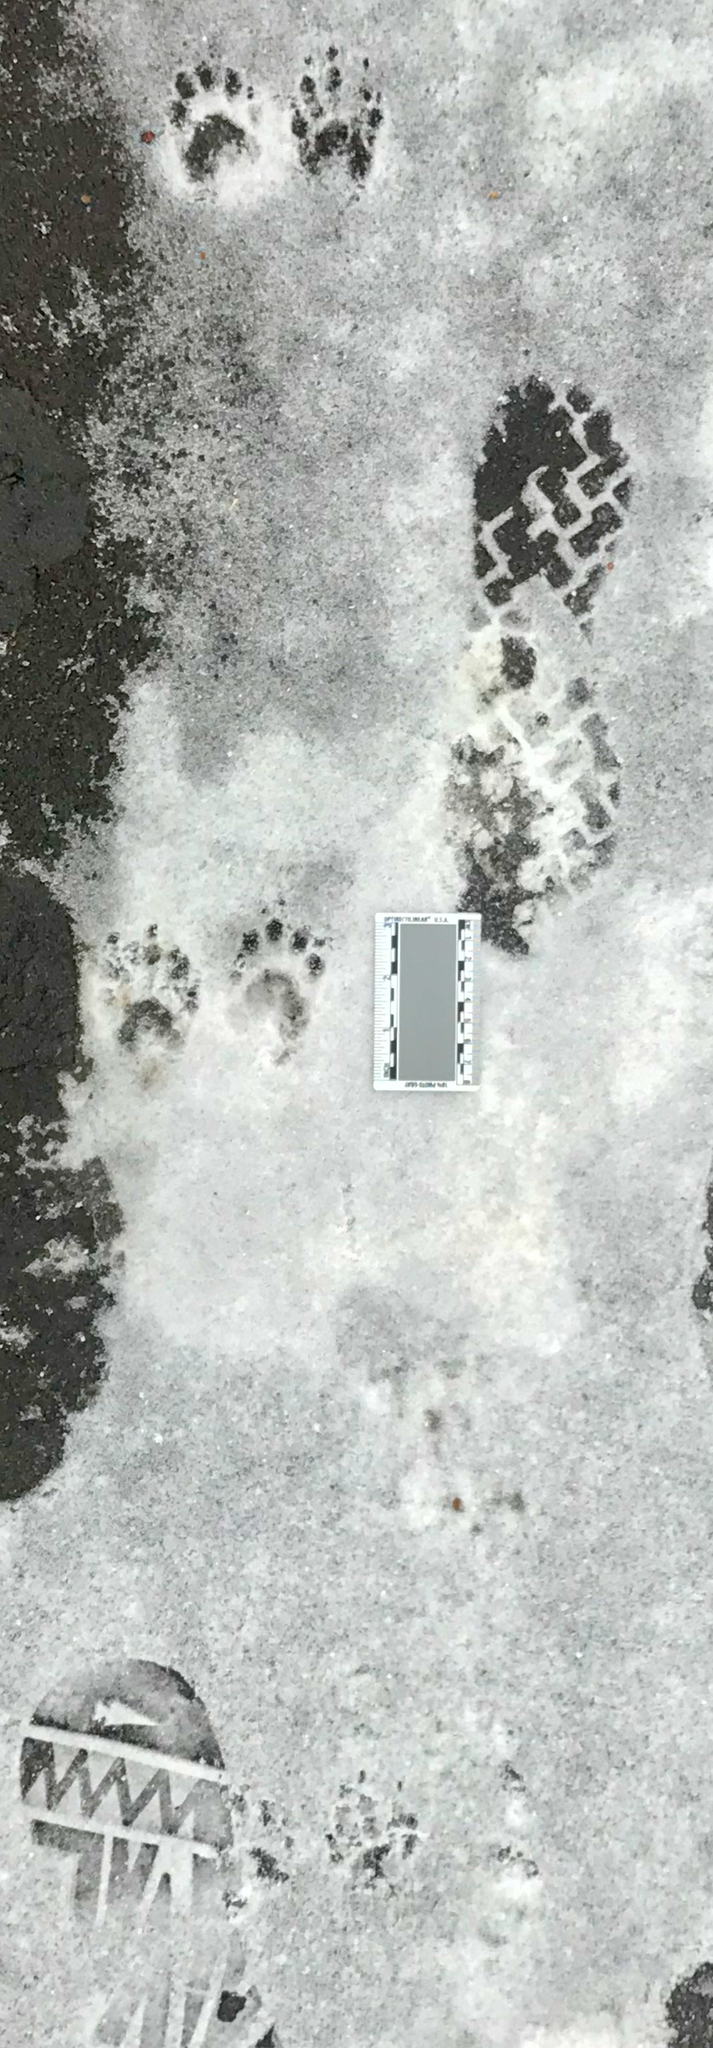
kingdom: Animalia
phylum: Chordata
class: Mammalia
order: Carnivora
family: Procyonidae
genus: Procyon
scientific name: Procyon lotor
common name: Raccoon
